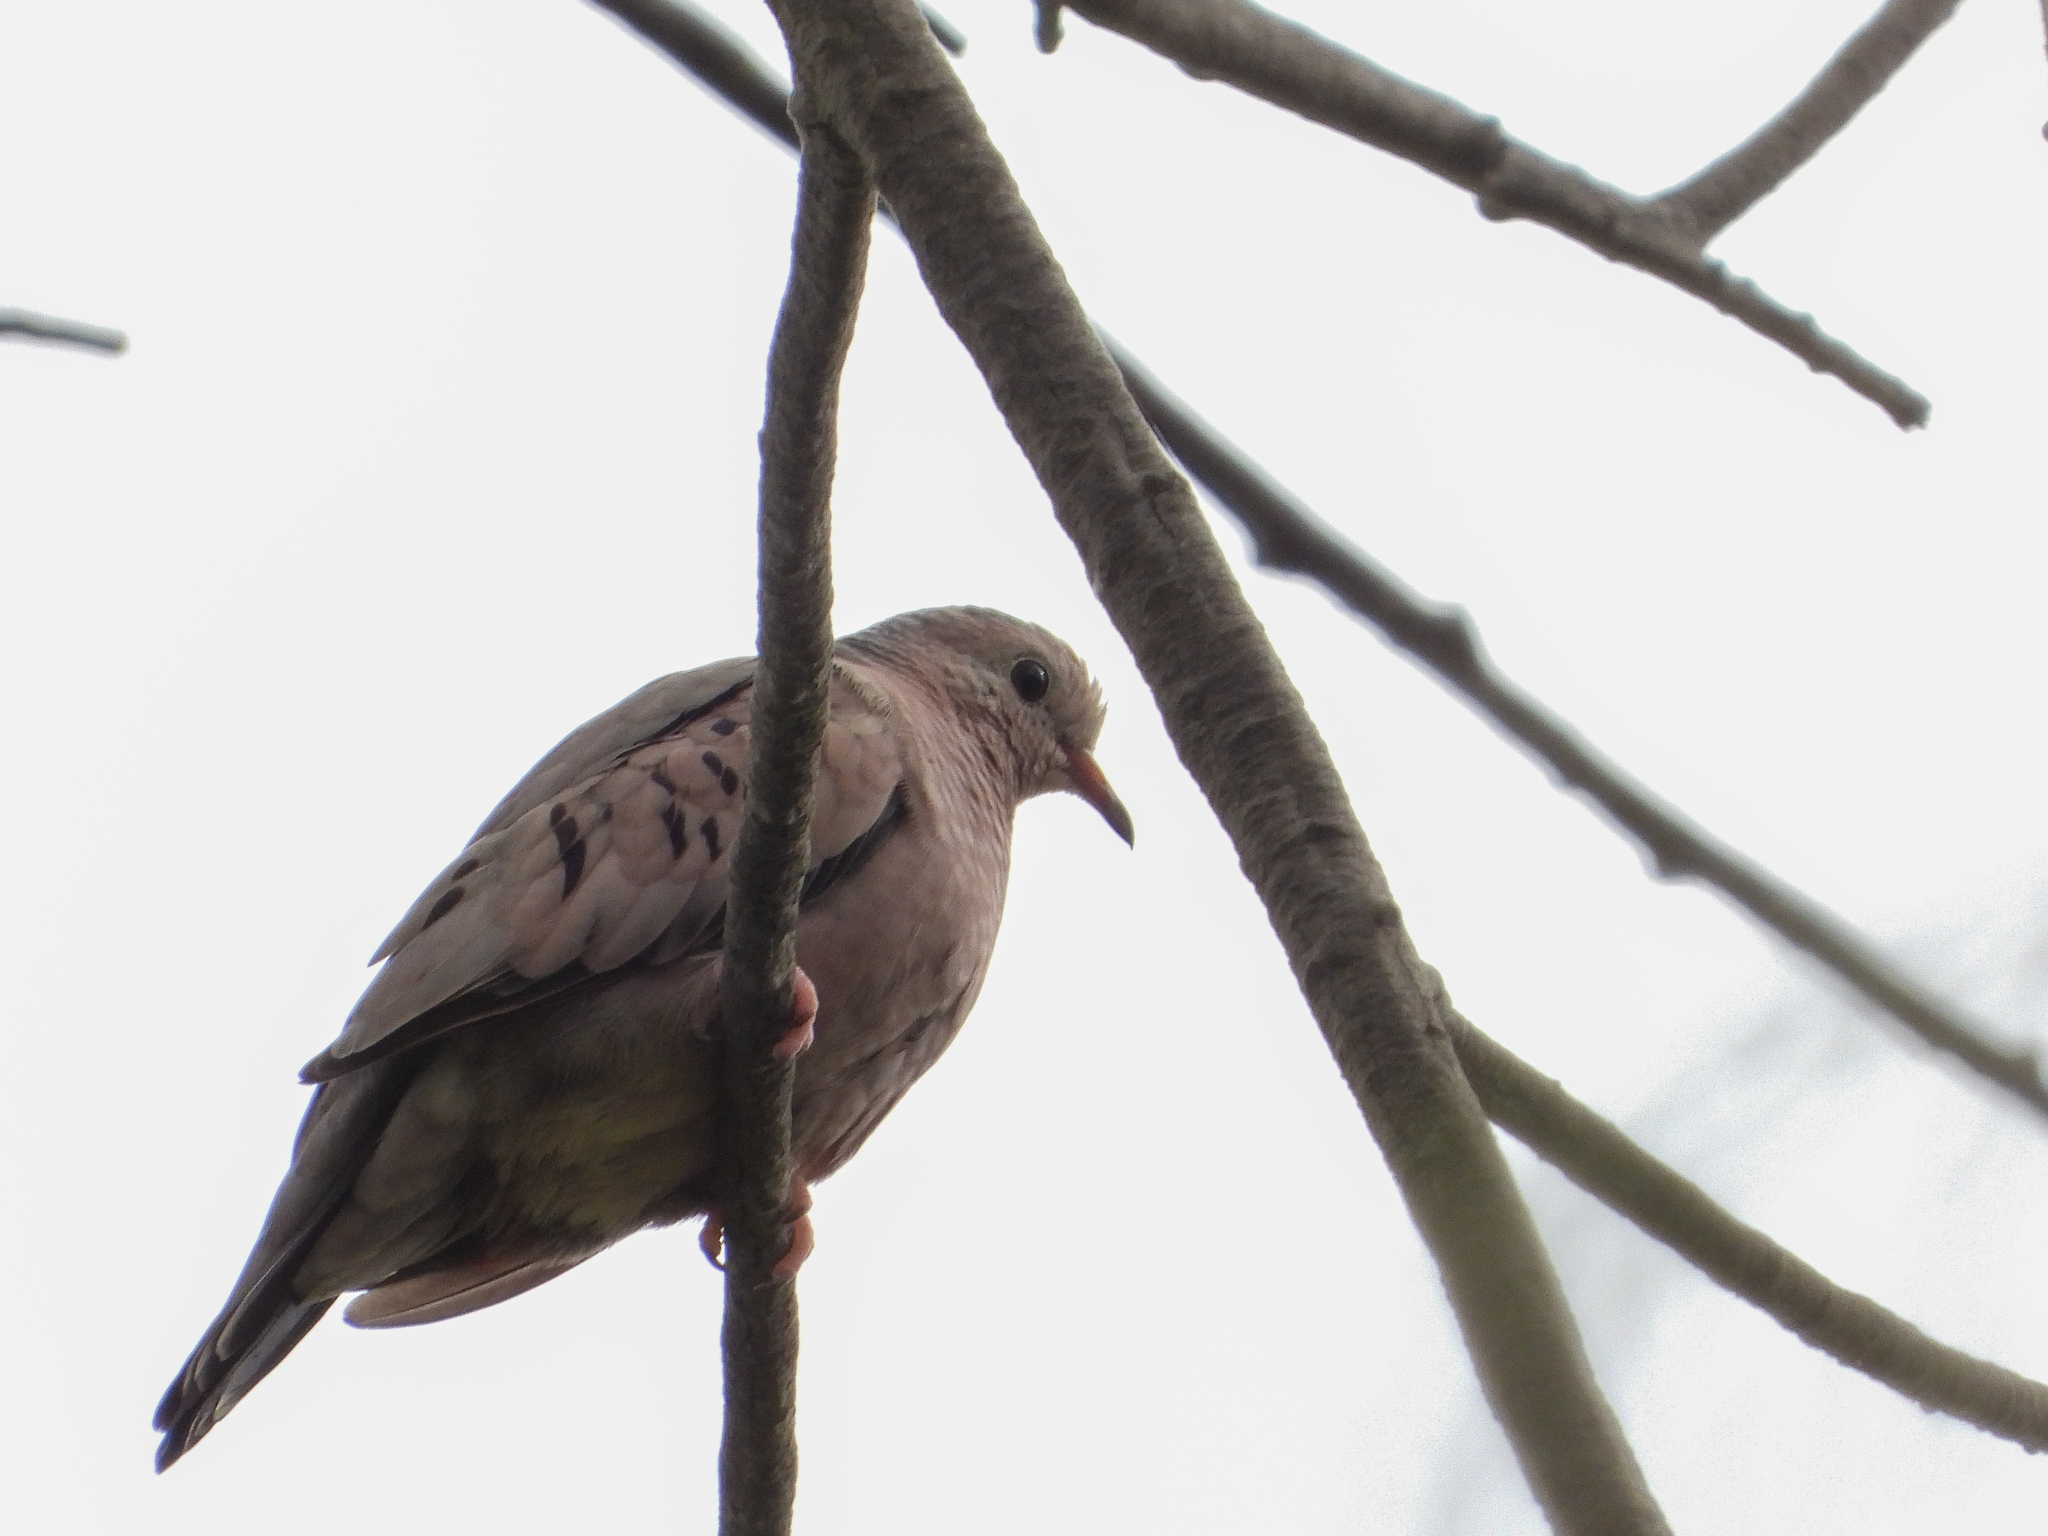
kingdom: Animalia
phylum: Chordata
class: Aves
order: Columbiformes
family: Columbidae
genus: Columbina
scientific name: Columbina passerina
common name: Common ground-dove
